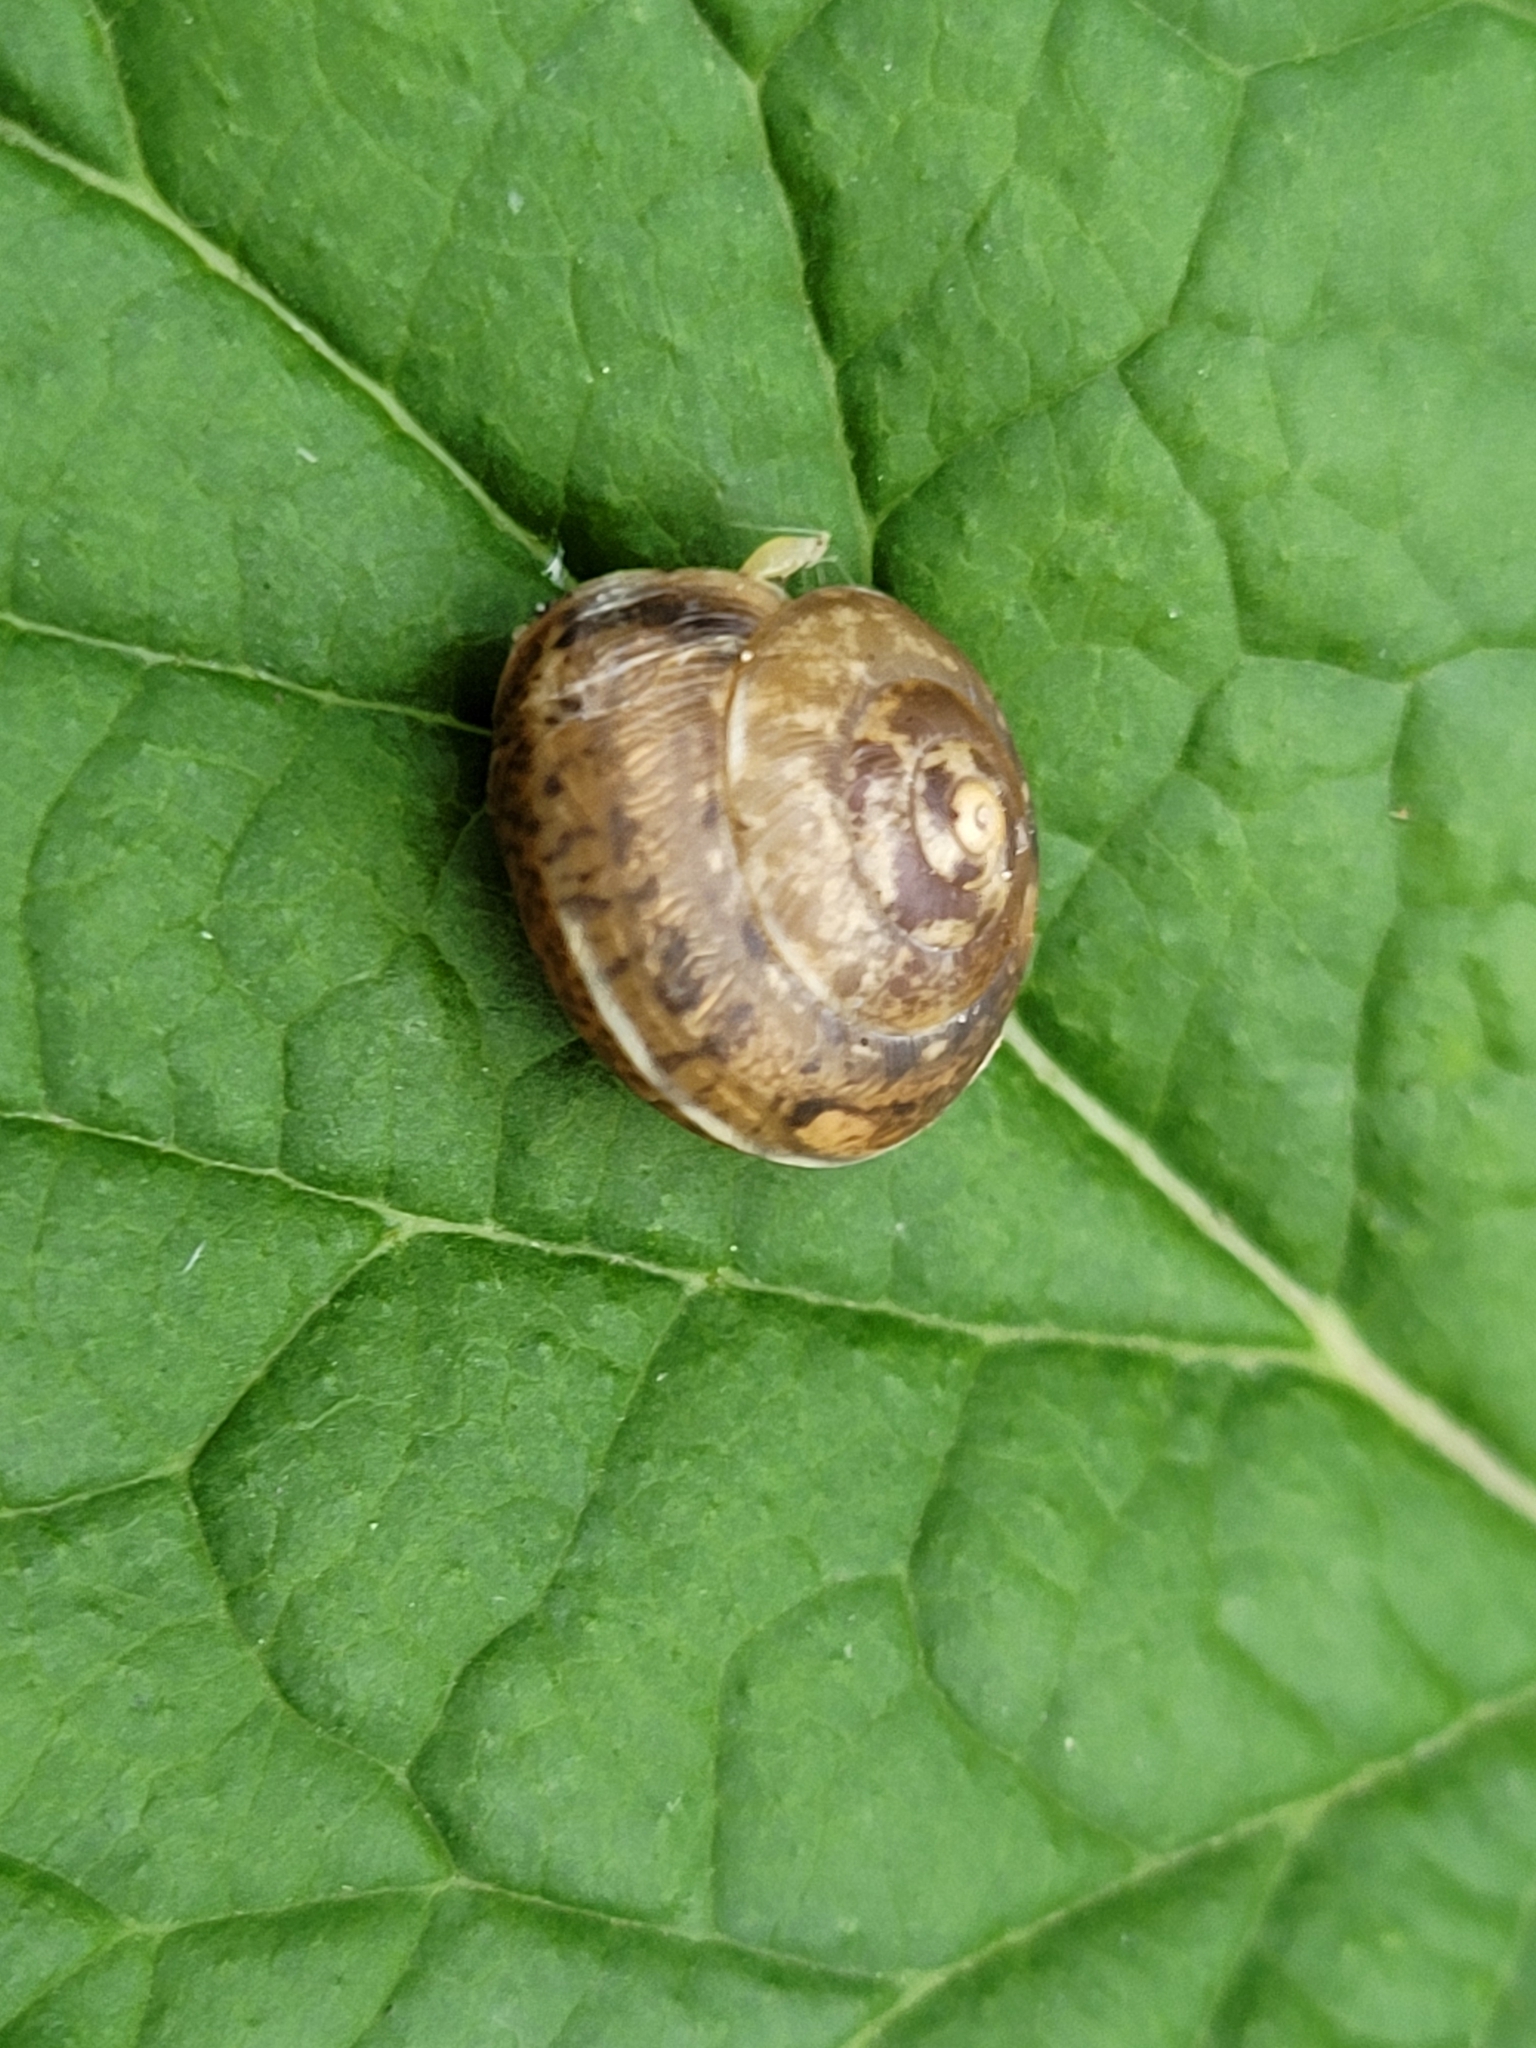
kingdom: Animalia
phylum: Mollusca
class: Gastropoda
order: Stylommatophora
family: Hygromiidae
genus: Hygromia
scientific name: Hygromia cinctella
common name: Girdled snail
